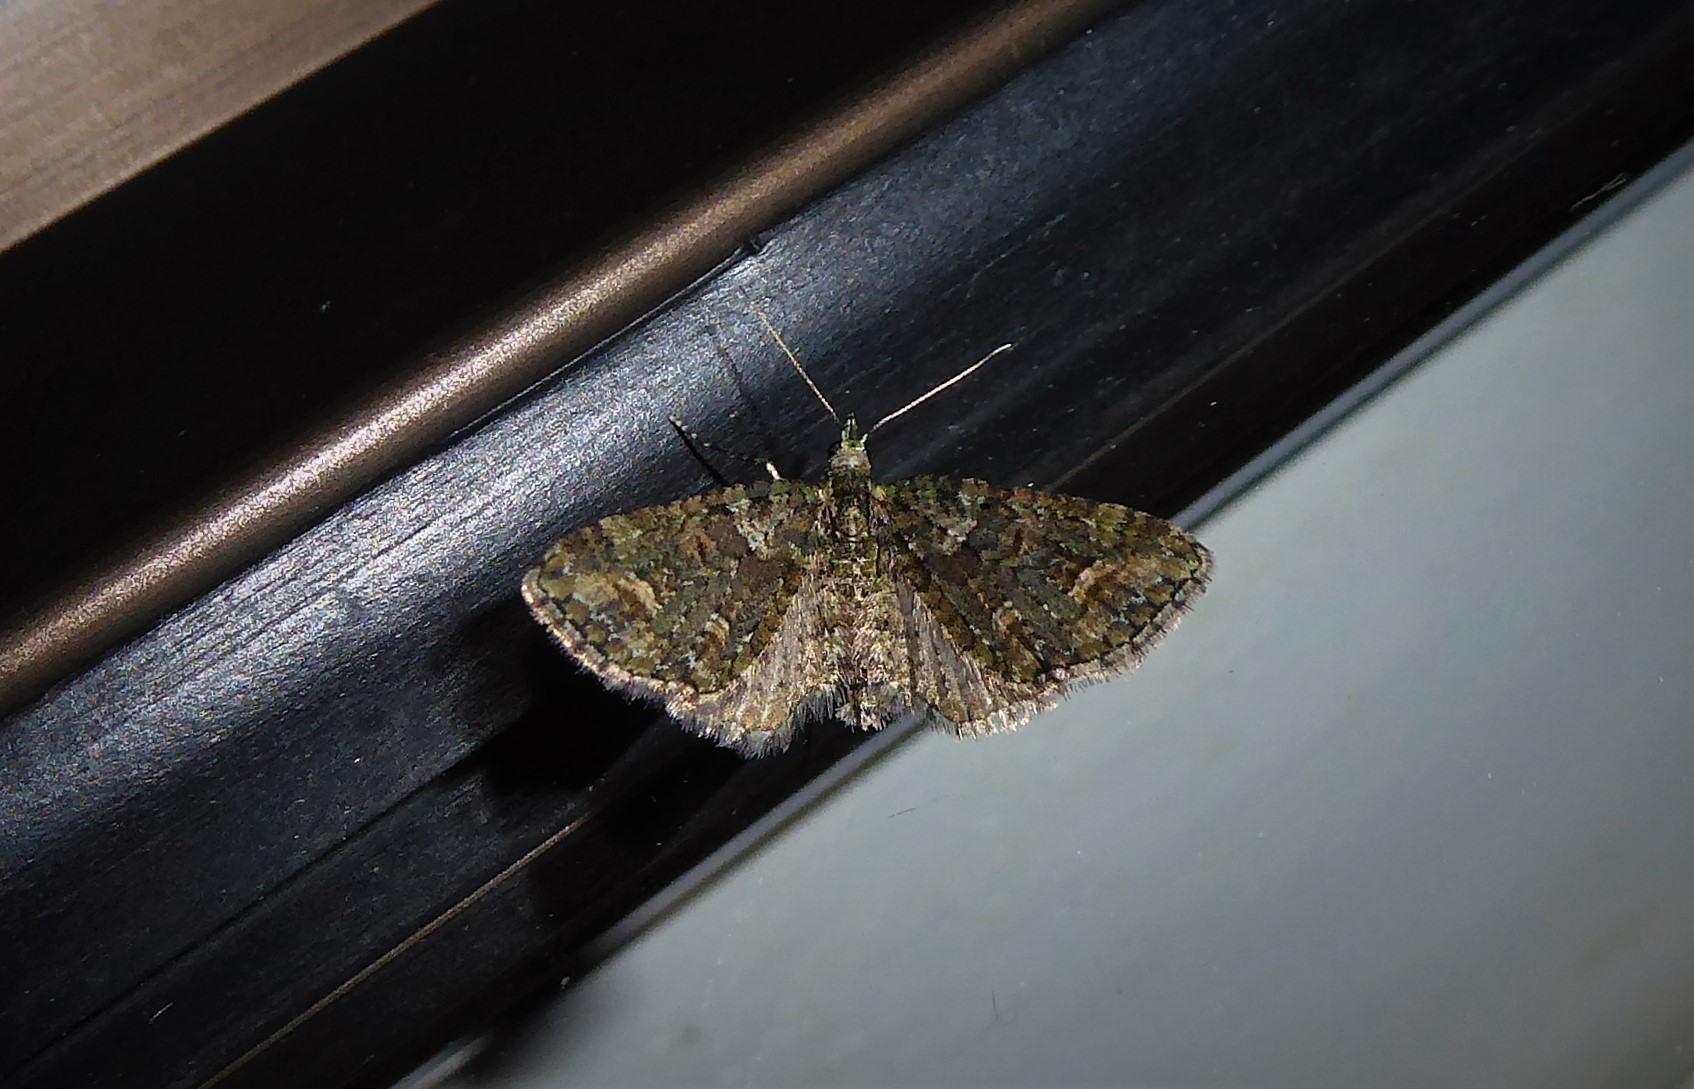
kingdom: Animalia
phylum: Arthropoda
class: Insecta
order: Lepidoptera
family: Geometridae
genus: Idaea
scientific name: Idaea mutanda
